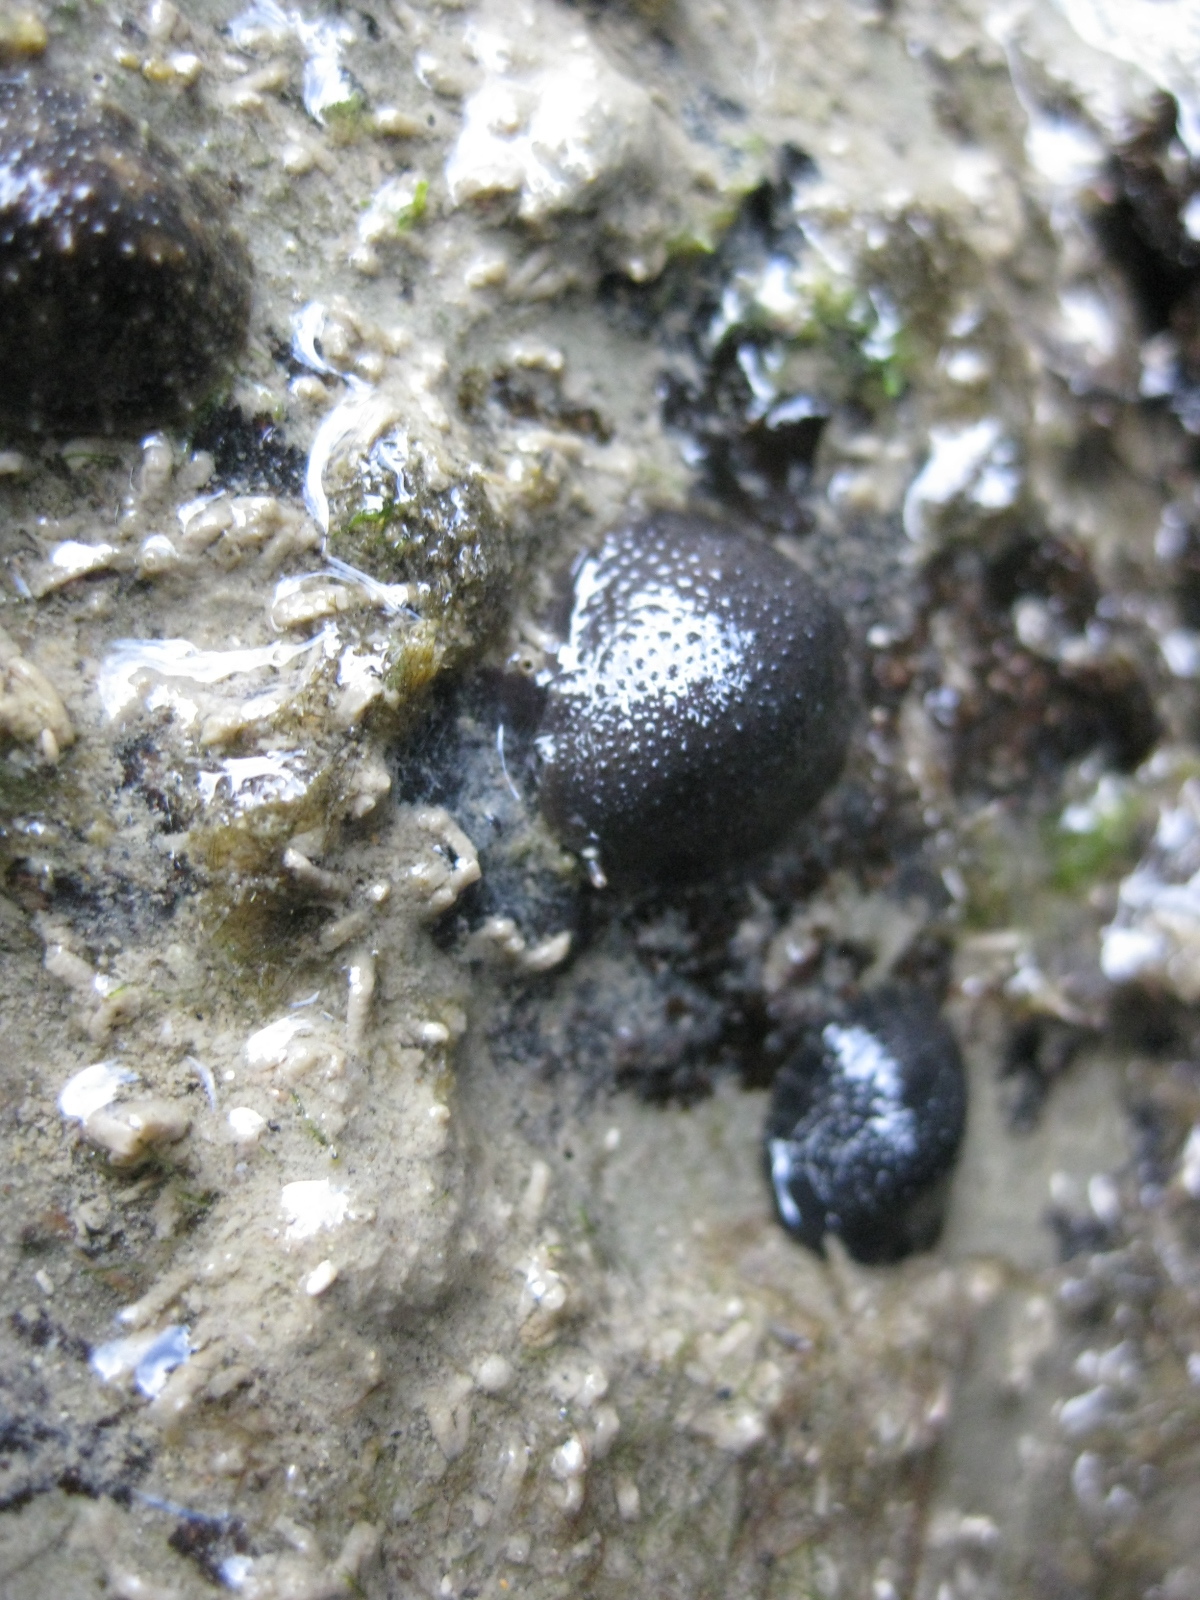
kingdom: Animalia
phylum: Mollusca
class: Gastropoda
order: Systellommatophora
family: Onchidiidae
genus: Onchidella
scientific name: Onchidella nigricans
